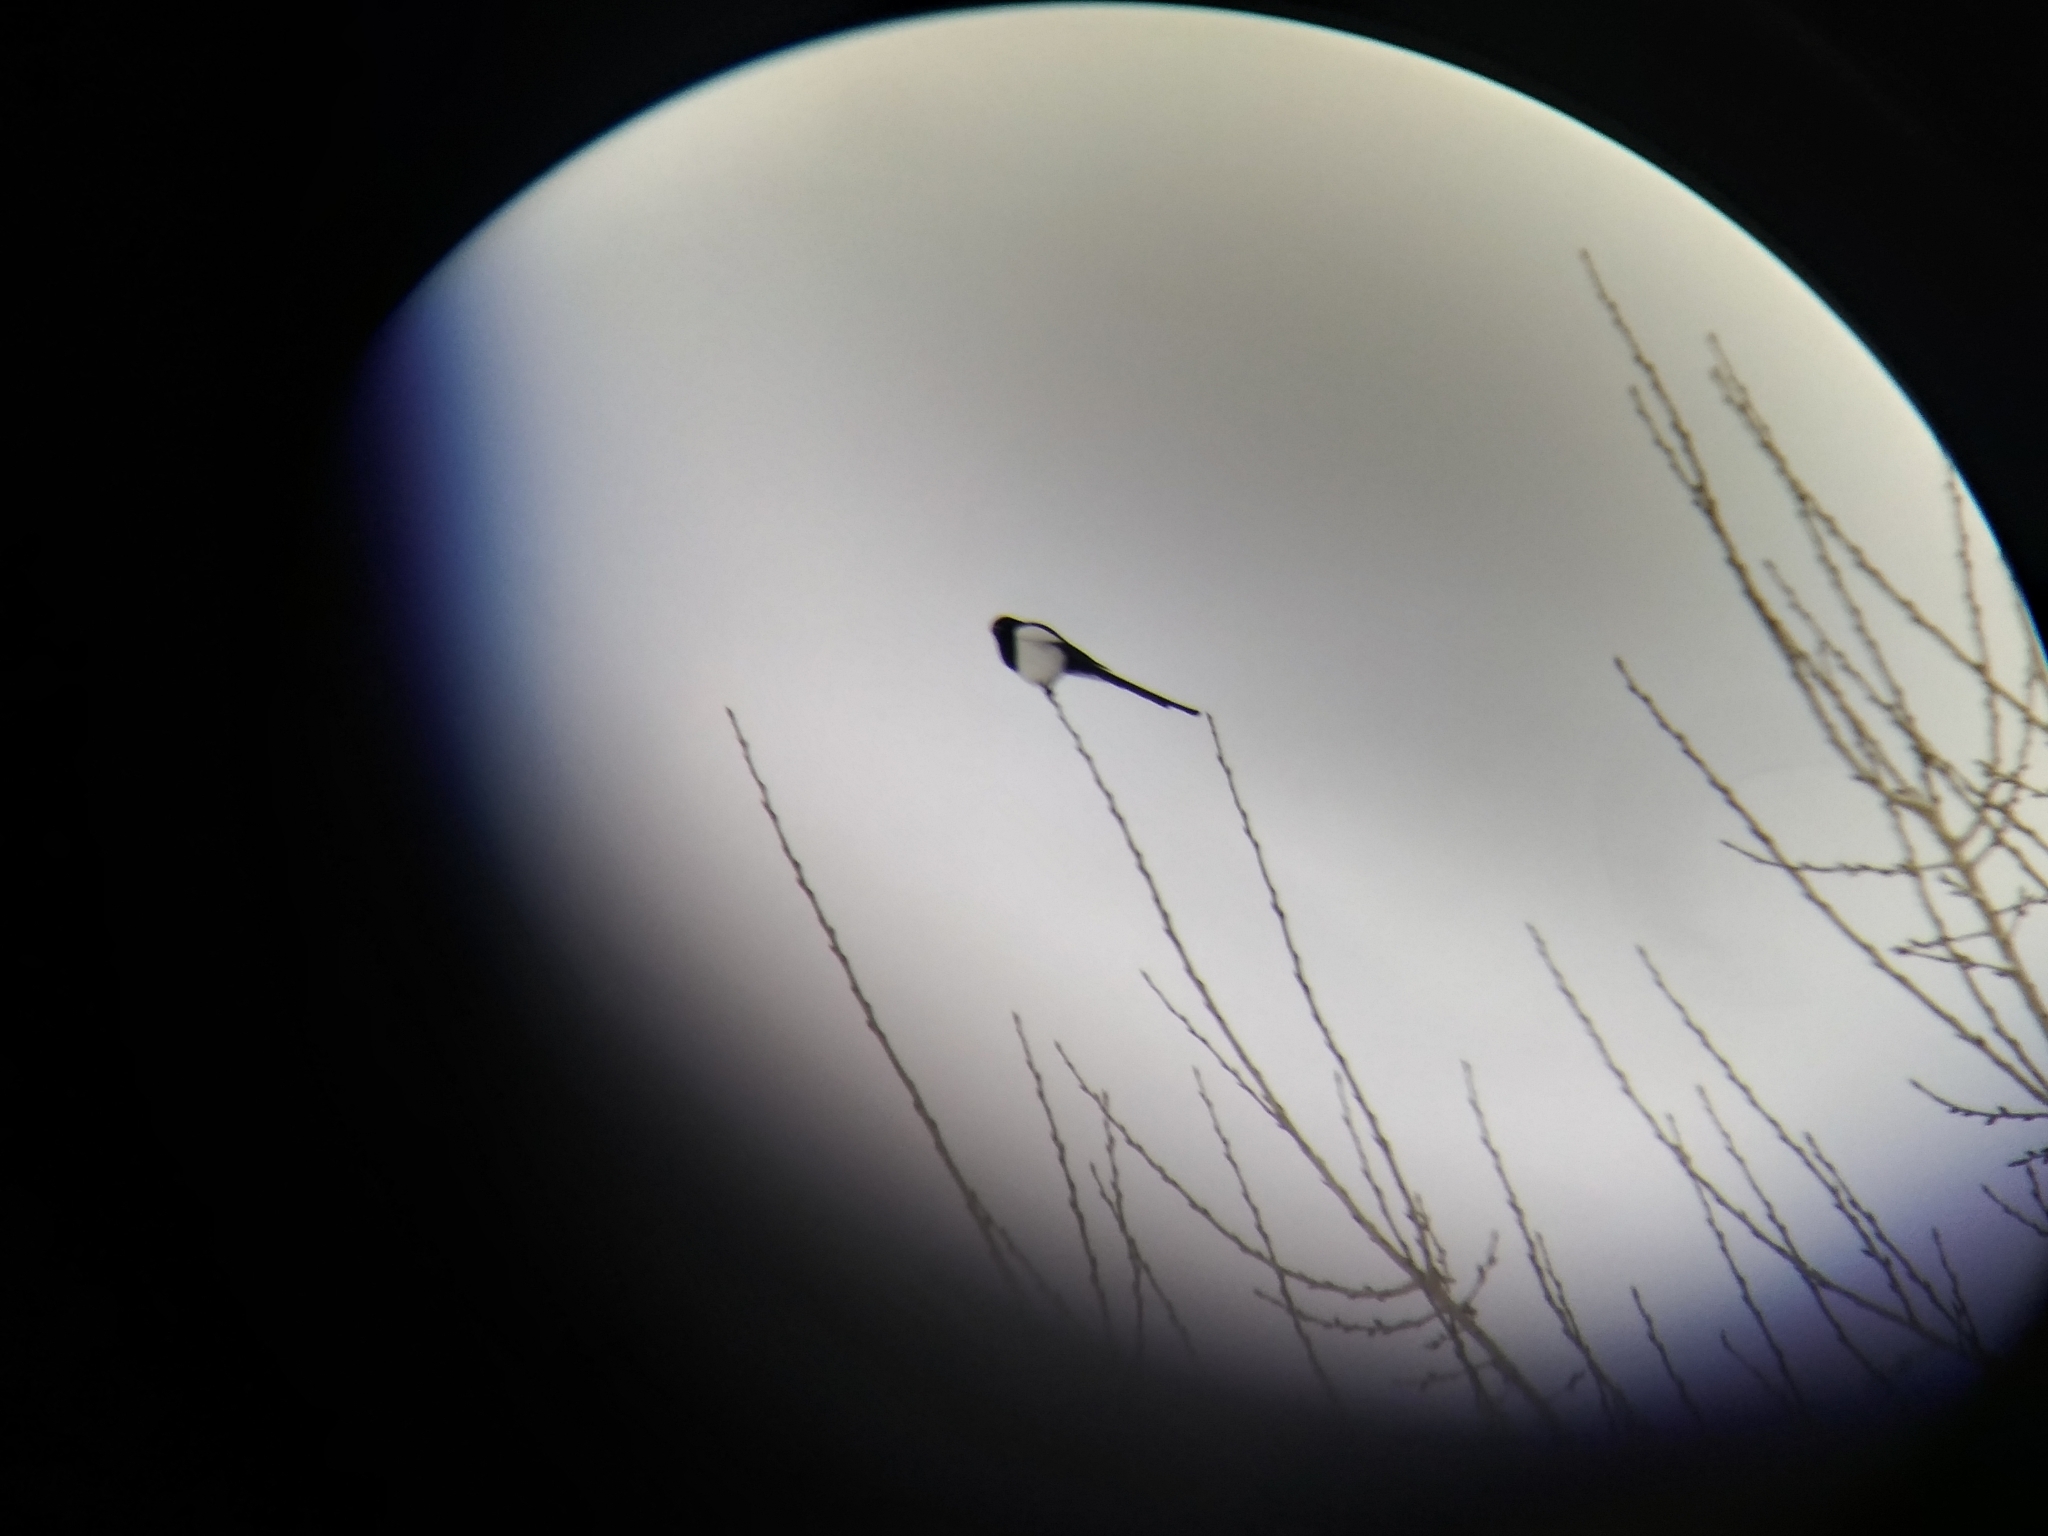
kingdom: Animalia
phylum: Chordata
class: Aves
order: Passeriformes
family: Corvidae
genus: Pica
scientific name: Pica hudsonia
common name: Black-billed magpie
